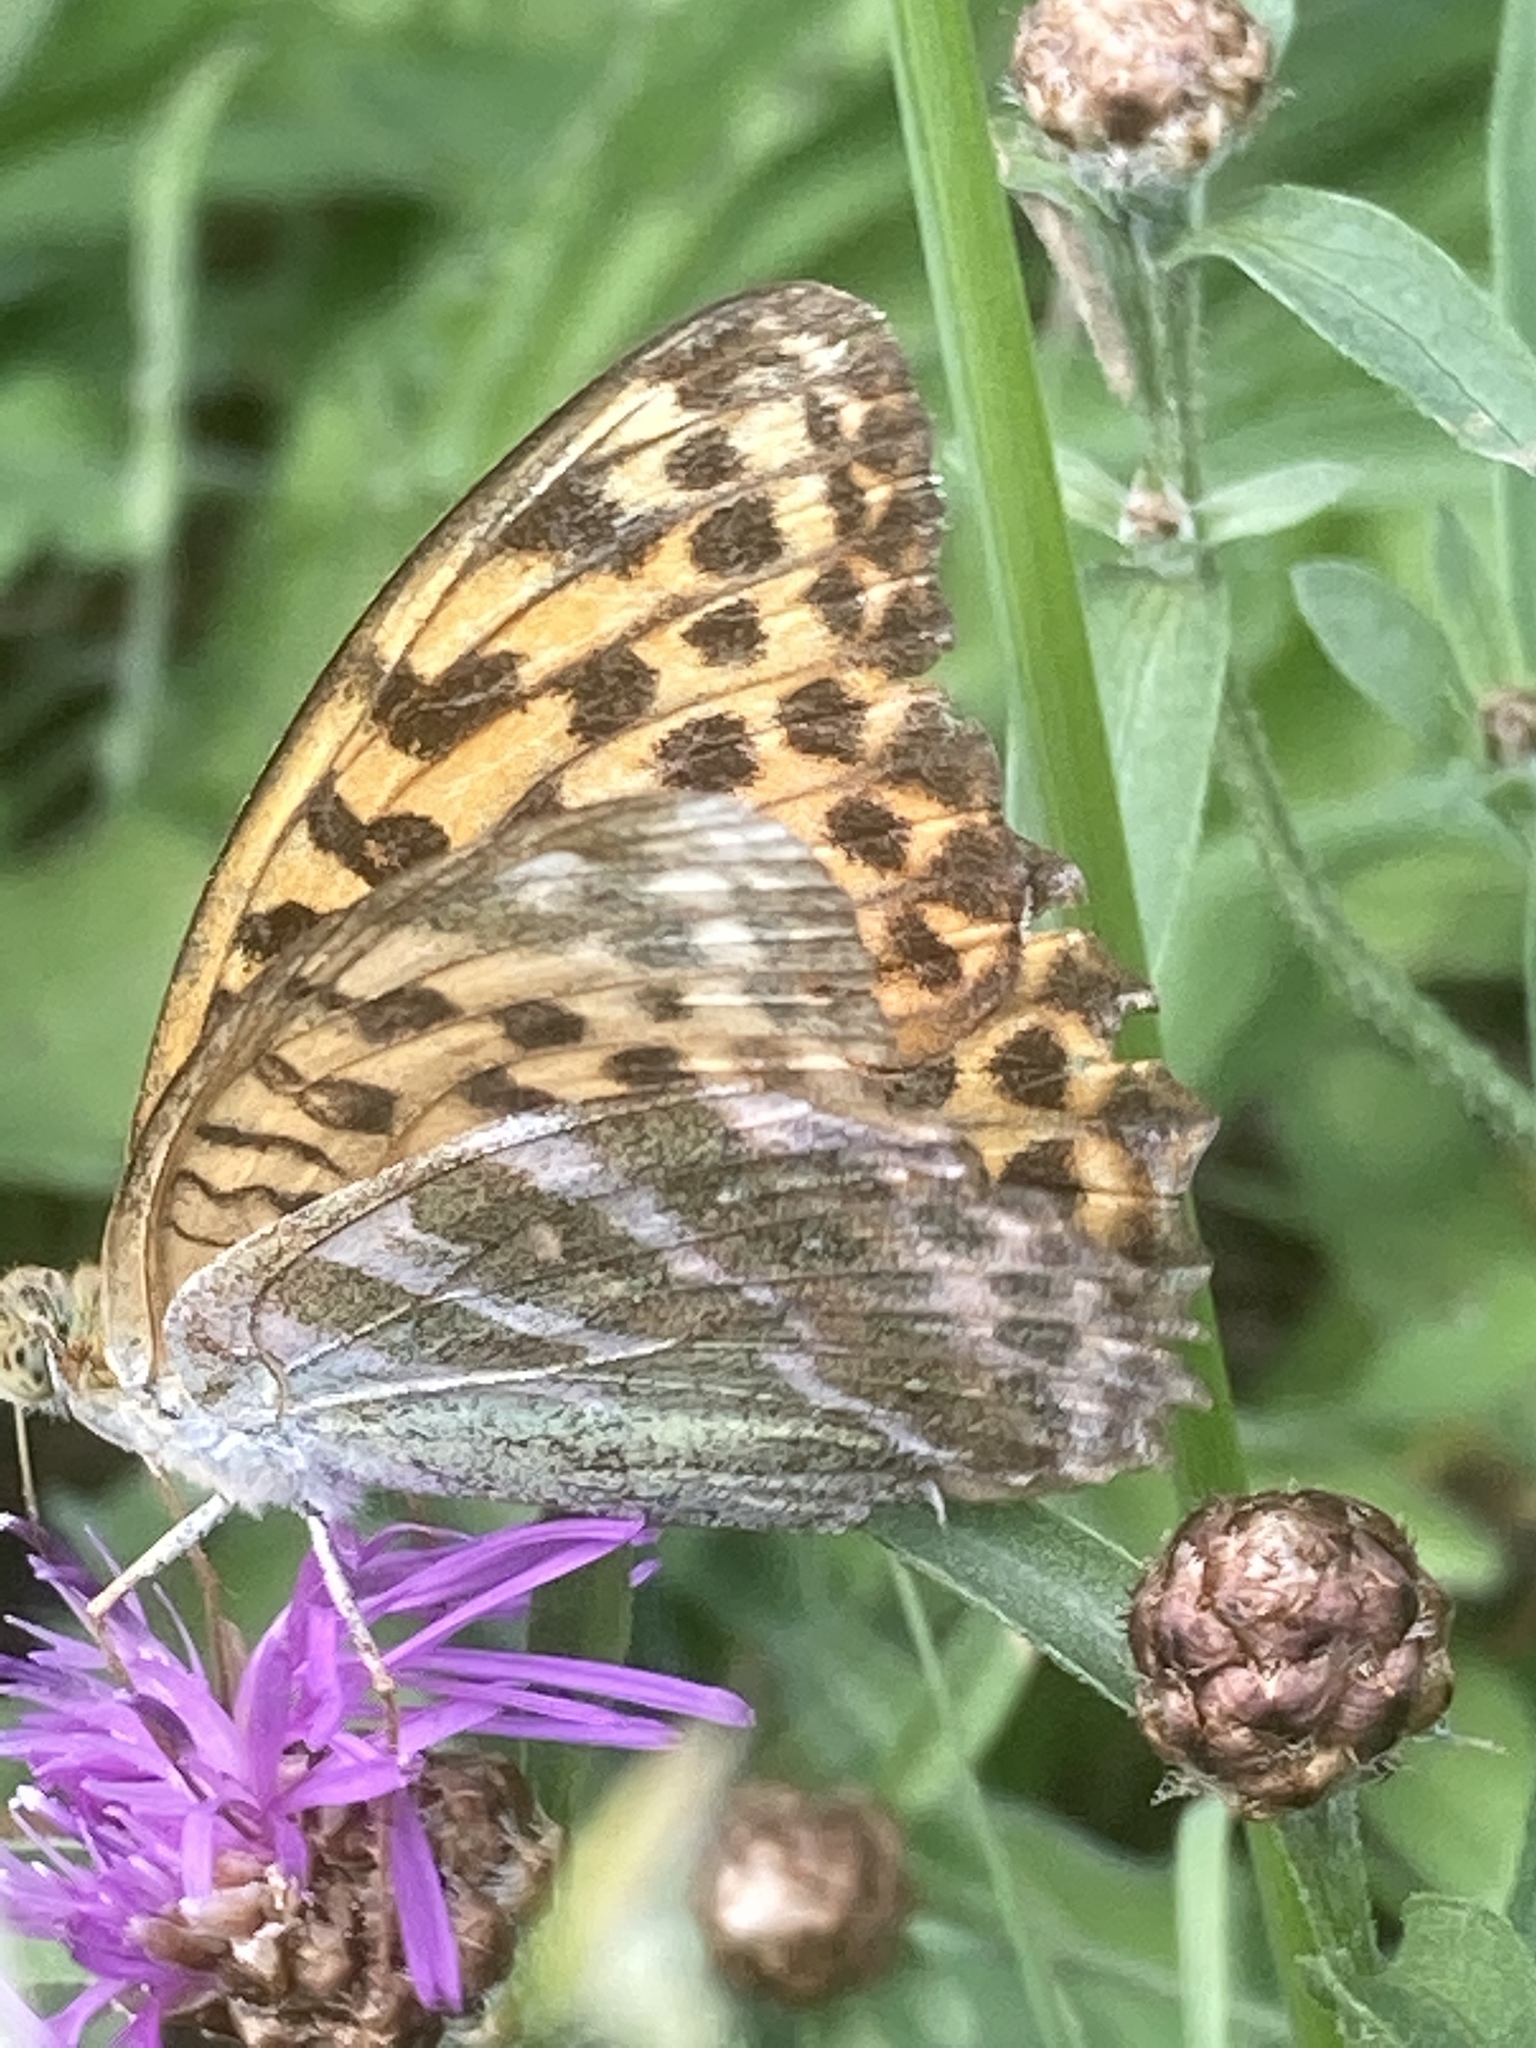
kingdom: Animalia
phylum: Arthropoda
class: Insecta
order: Lepidoptera
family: Nymphalidae
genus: Argynnis
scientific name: Argynnis paphia
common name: Silver-washed fritillary
